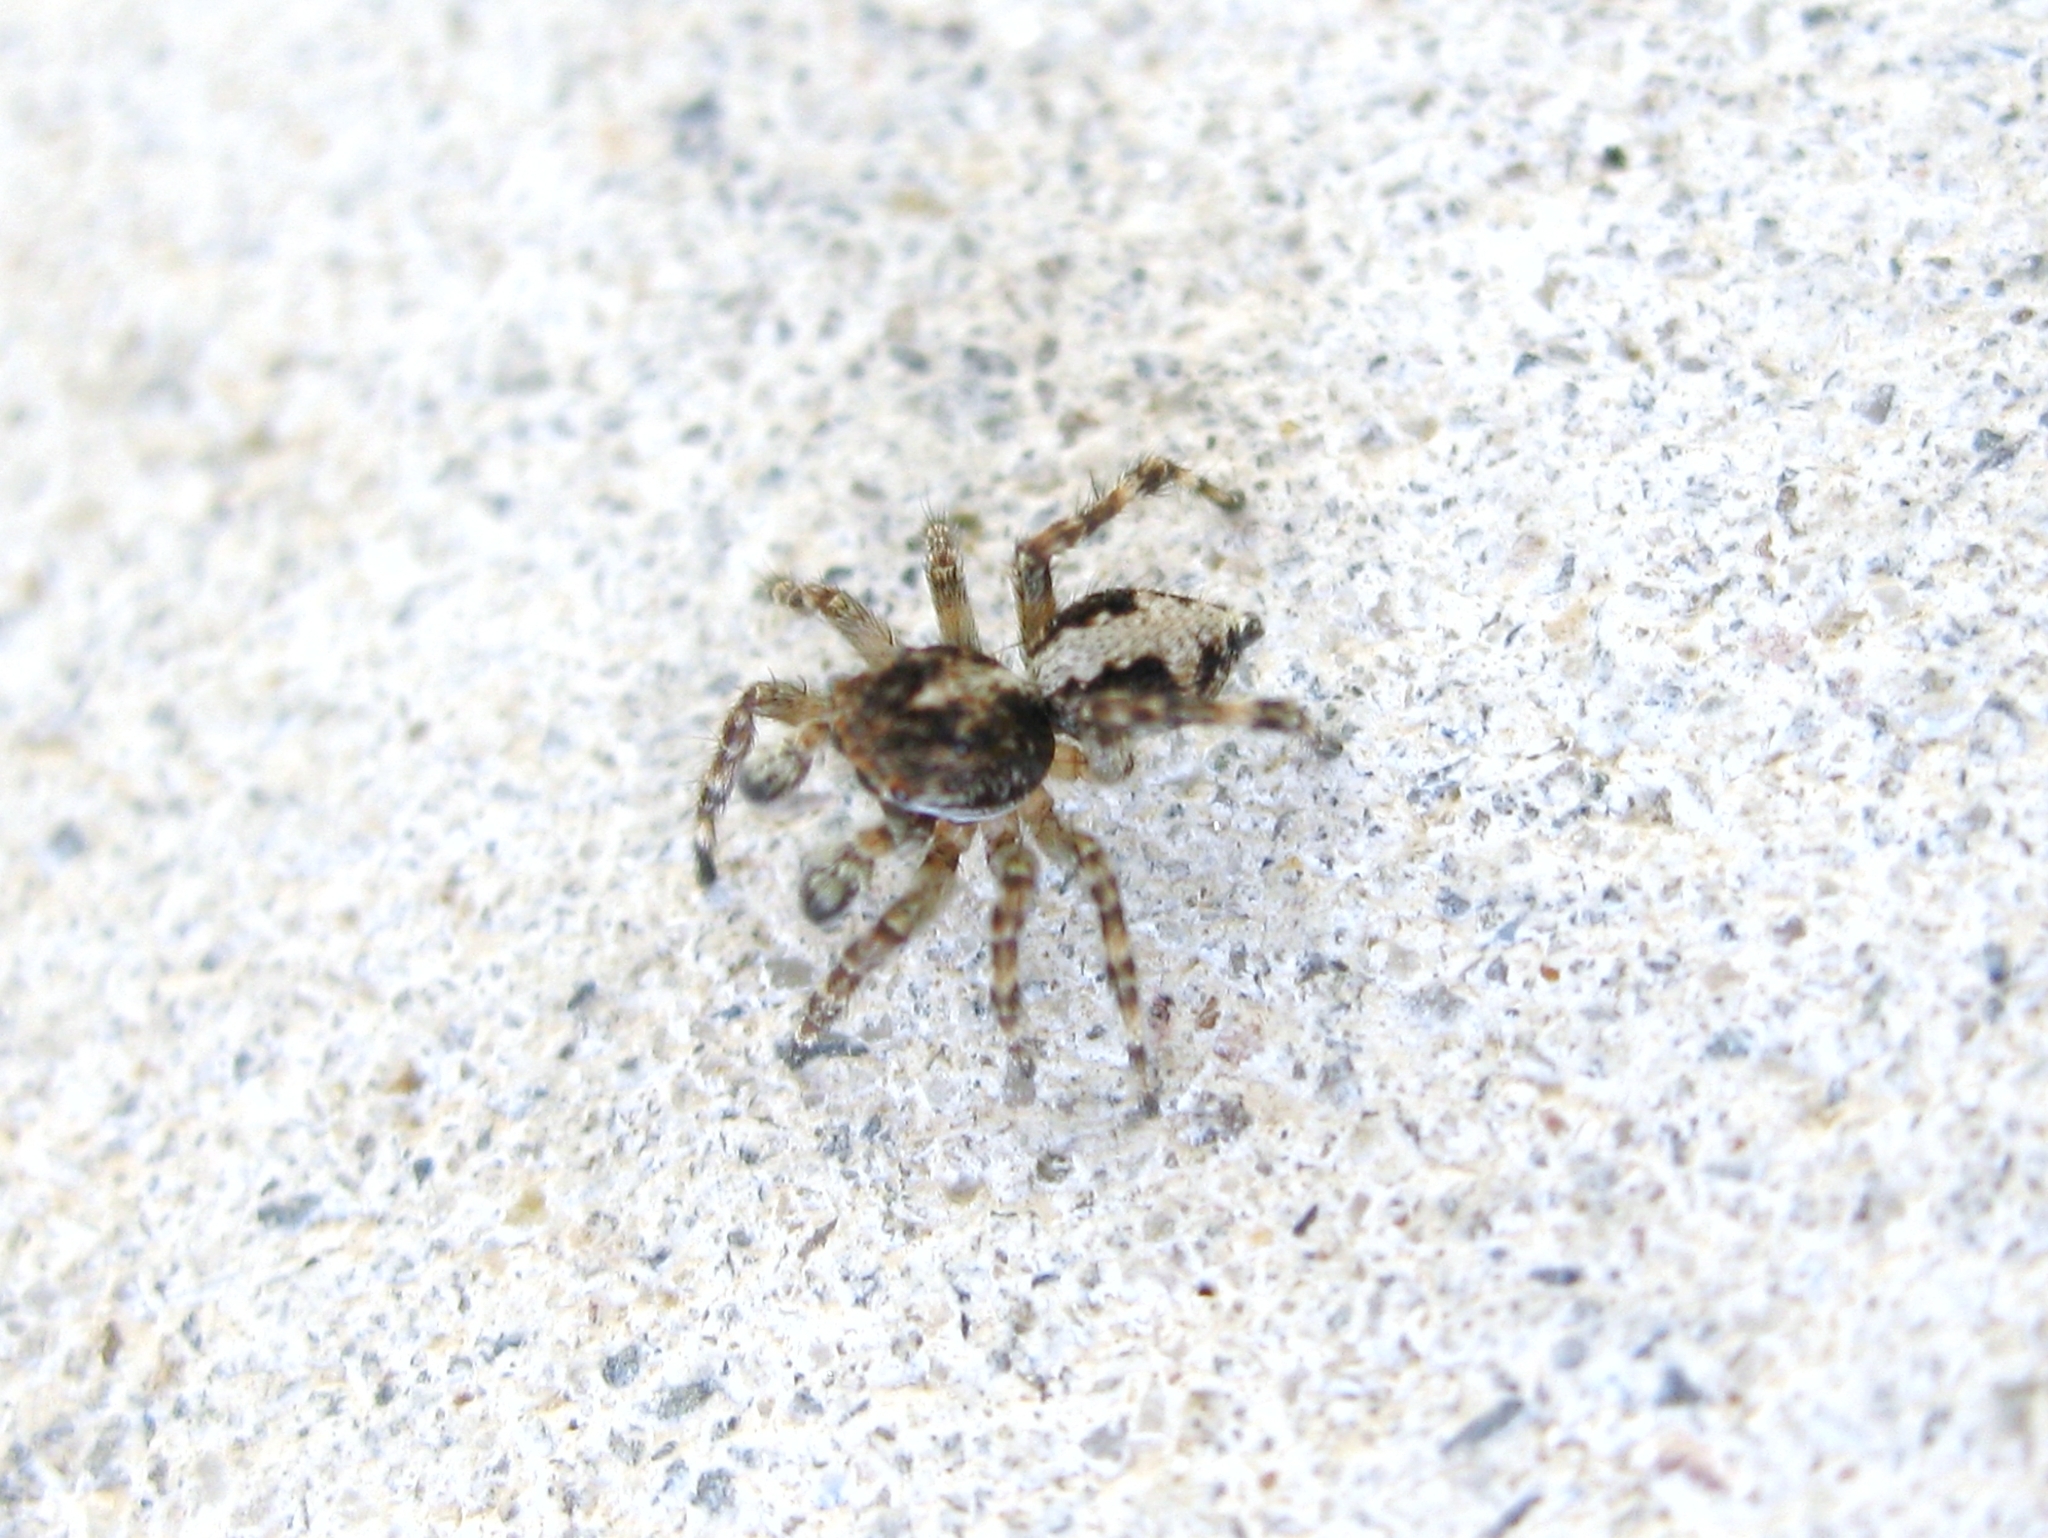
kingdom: Animalia
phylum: Arthropoda
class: Arachnida
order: Araneae
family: Salticidae
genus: Attulus
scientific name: Attulus relictarius
